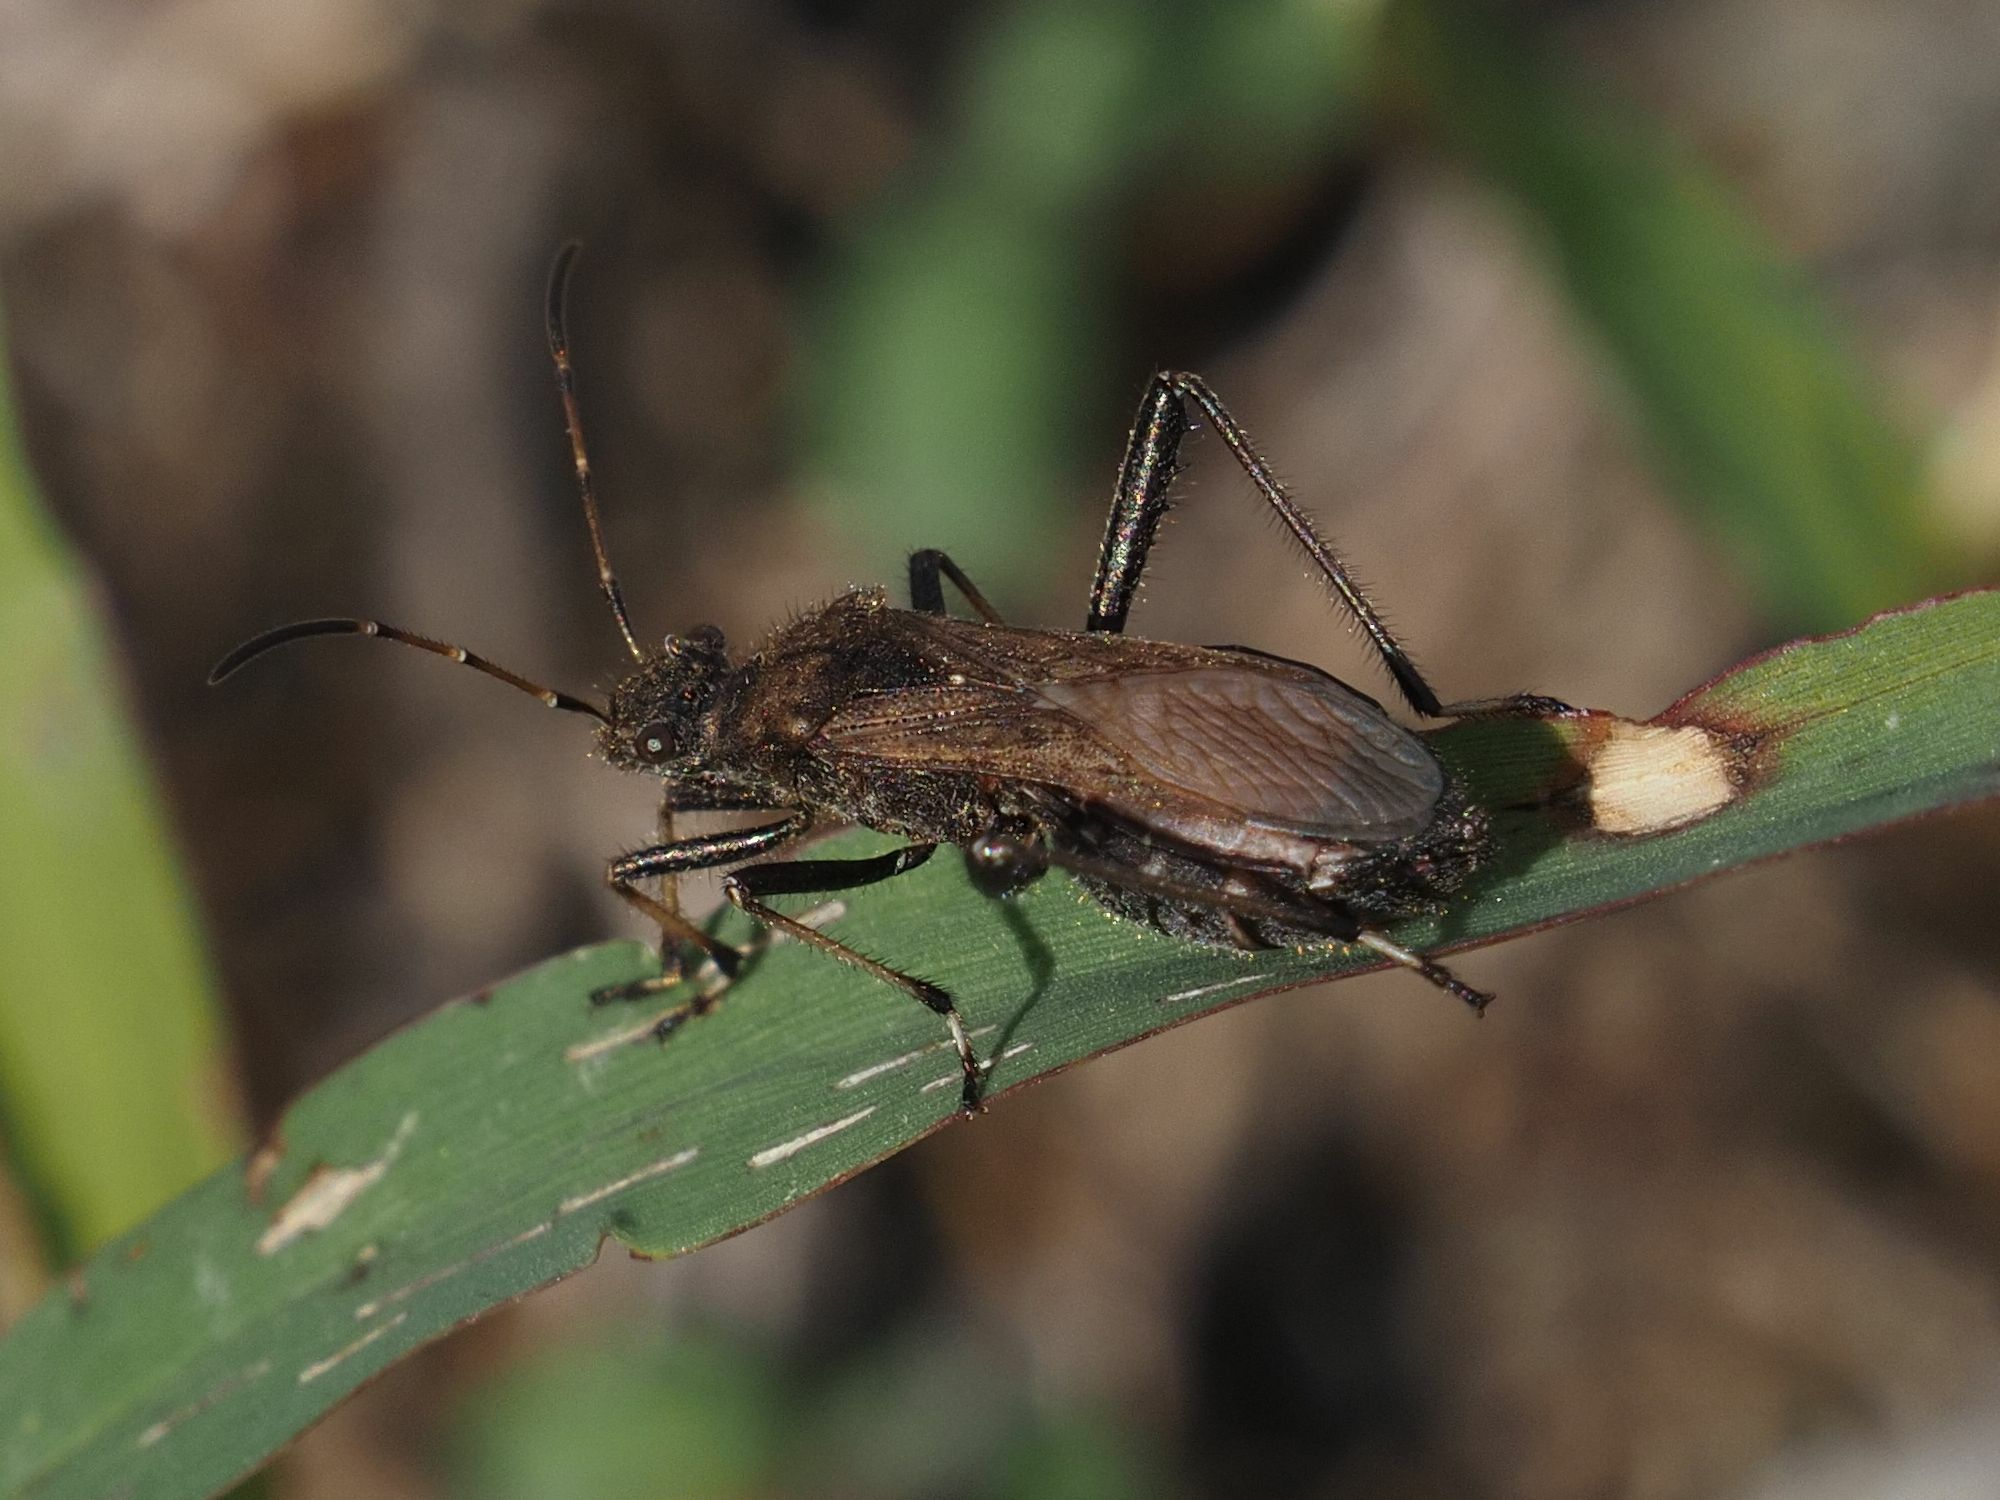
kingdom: Animalia
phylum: Arthropoda
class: Insecta
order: Hemiptera
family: Alydidae
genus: Alydus
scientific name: Alydus calcaratus
